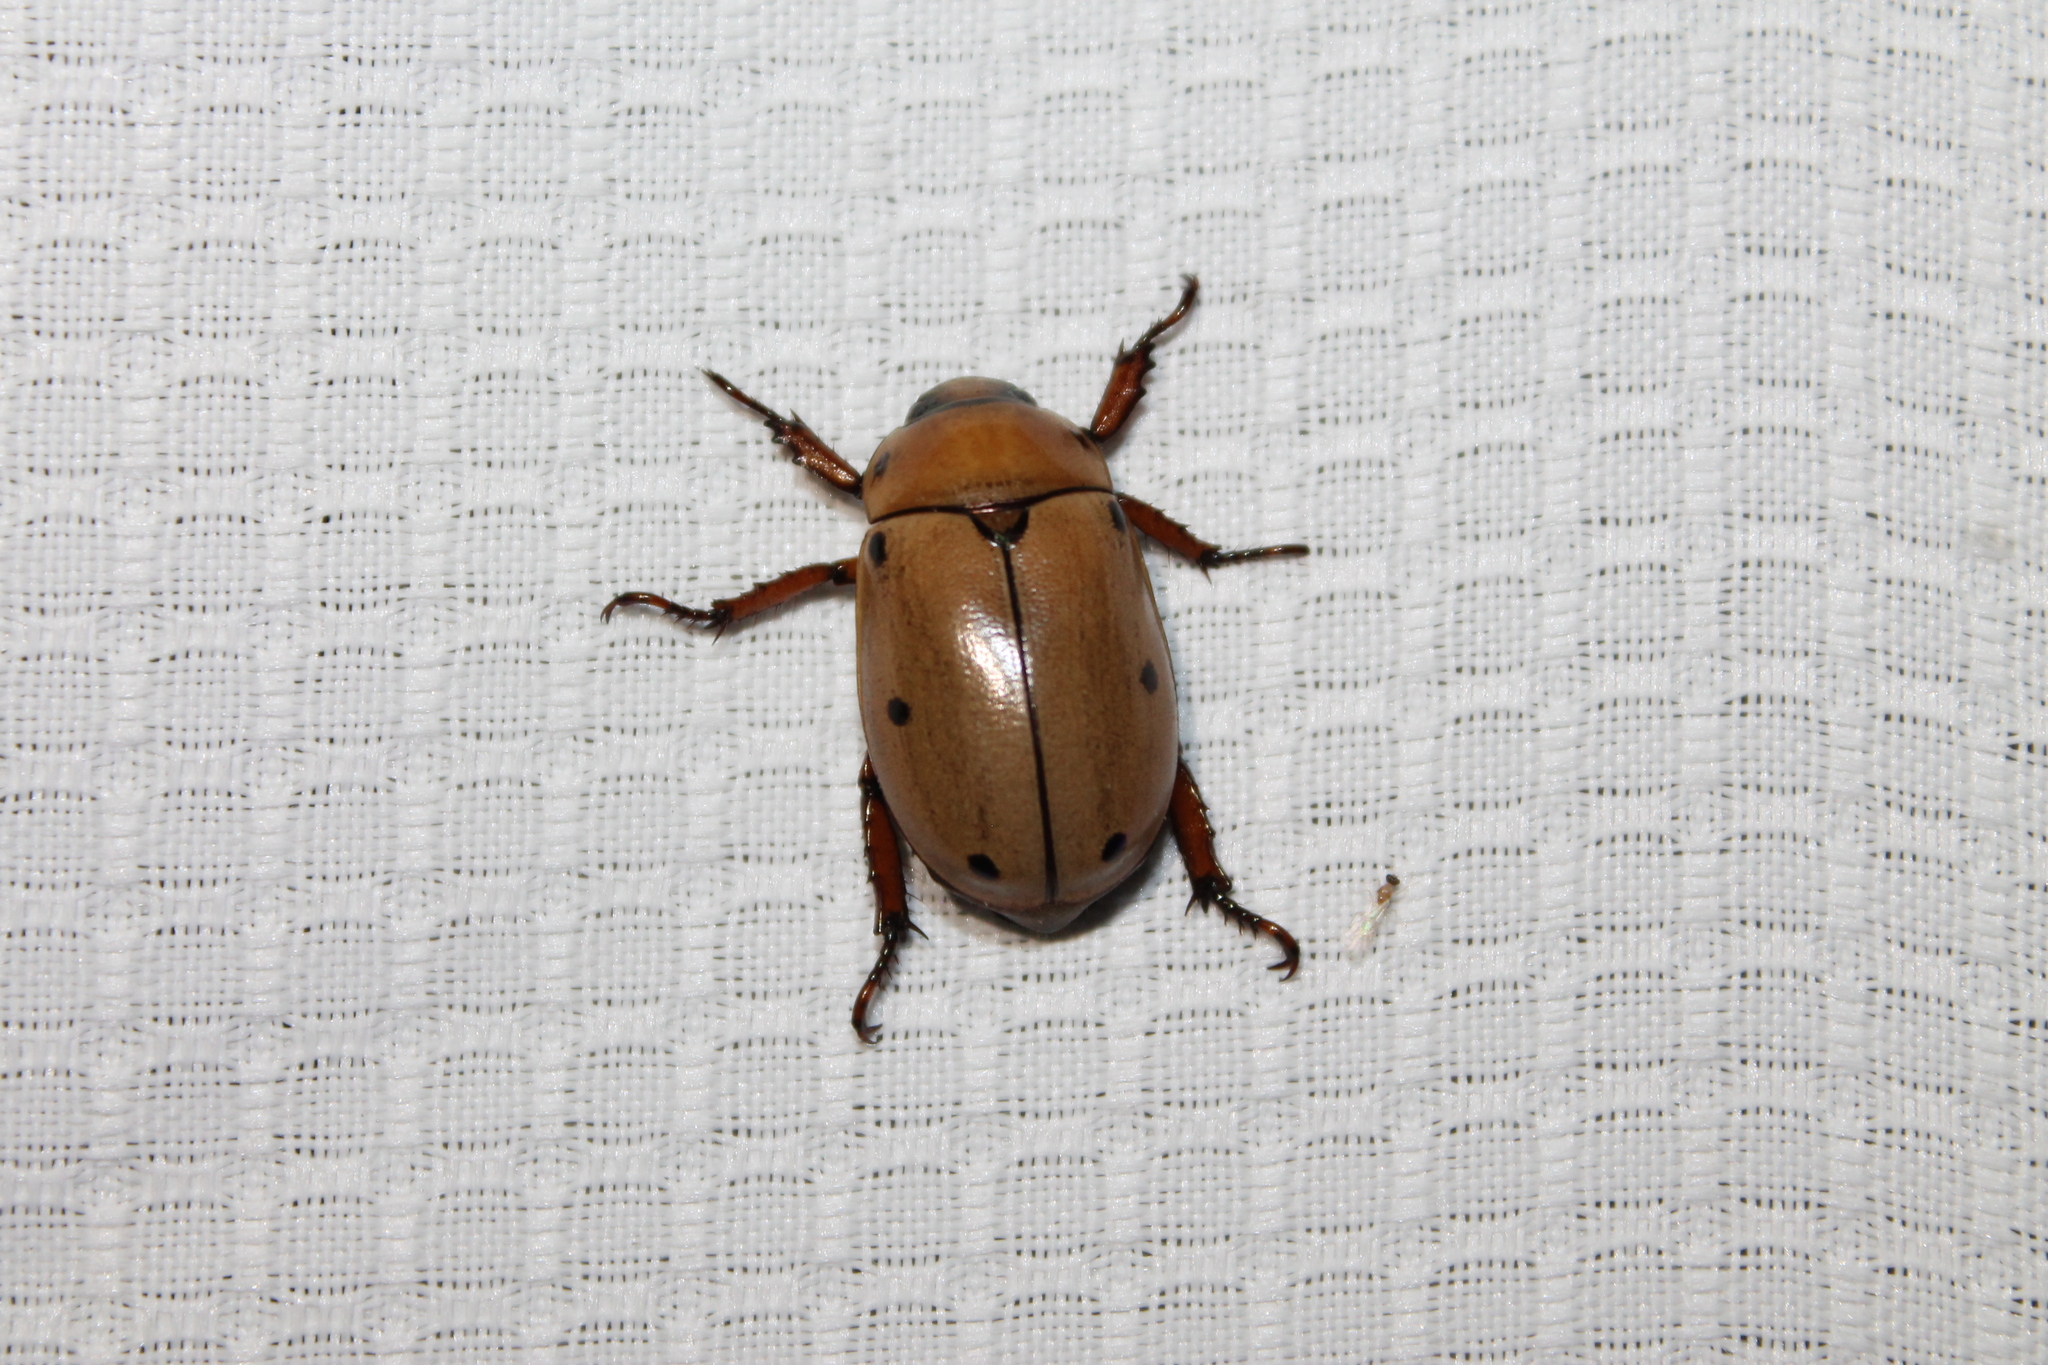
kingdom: Animalia
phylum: Arthropoda
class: Insecta
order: Coleoptera
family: Scarabaeidae
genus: Pelidnota
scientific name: Pelidnota punctata
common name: Grapevine beetle
